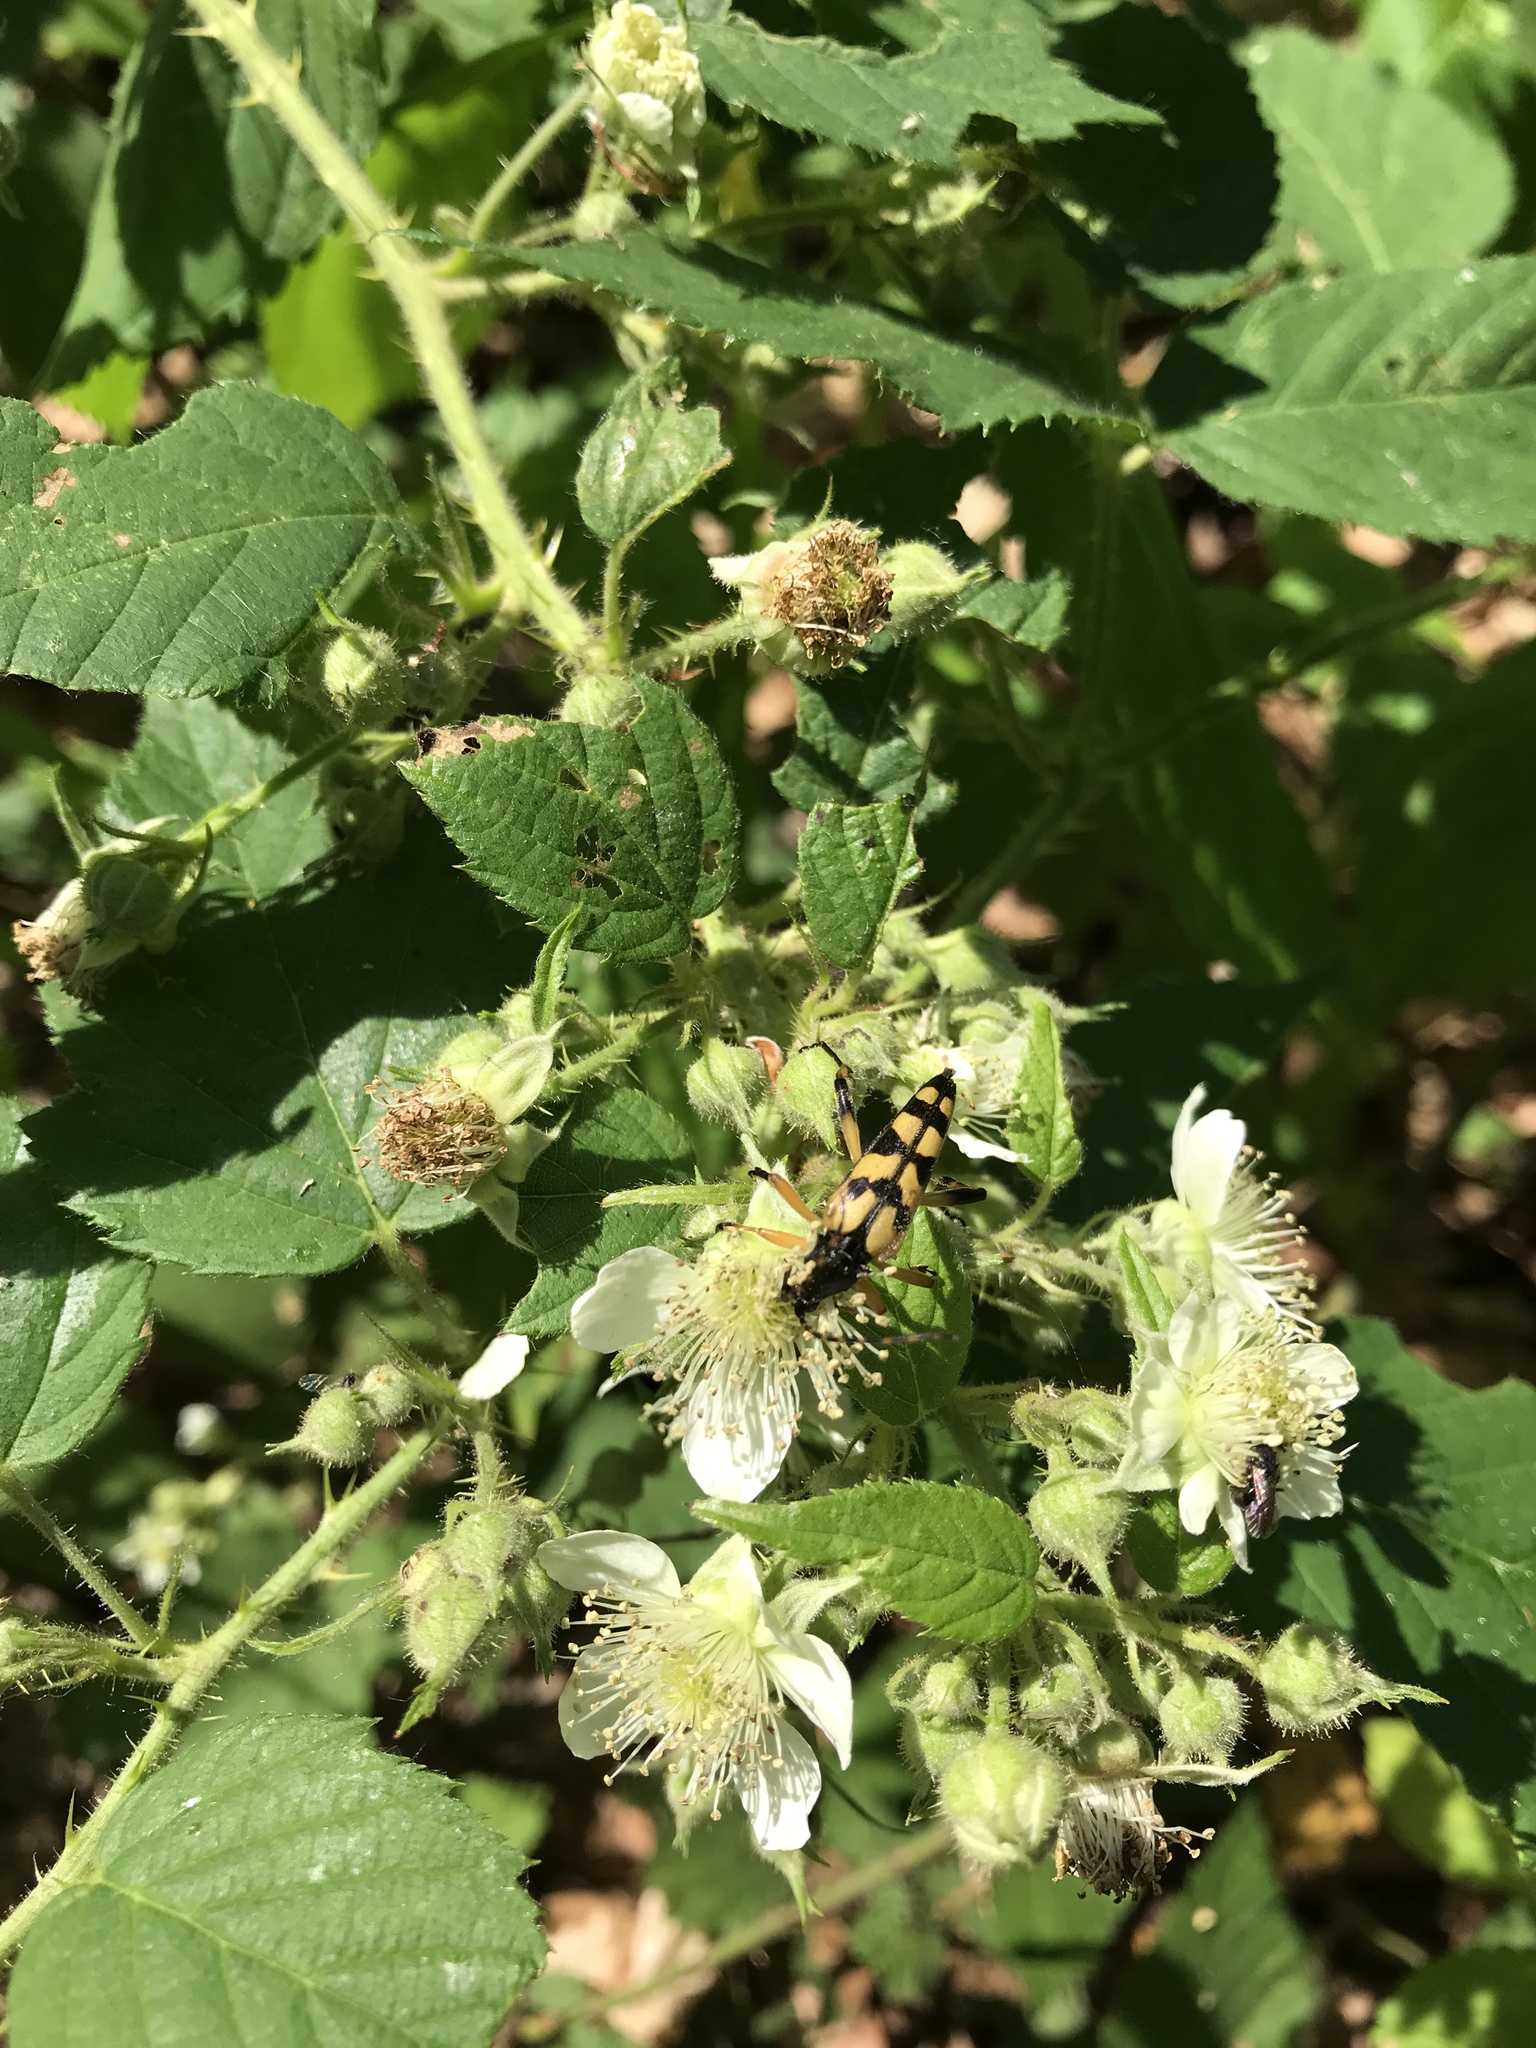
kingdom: Animalia
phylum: Arthropoda
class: Insecta
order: Coleoptera
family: Cerambycidae
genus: Rutpela
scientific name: Rutpela maculata
